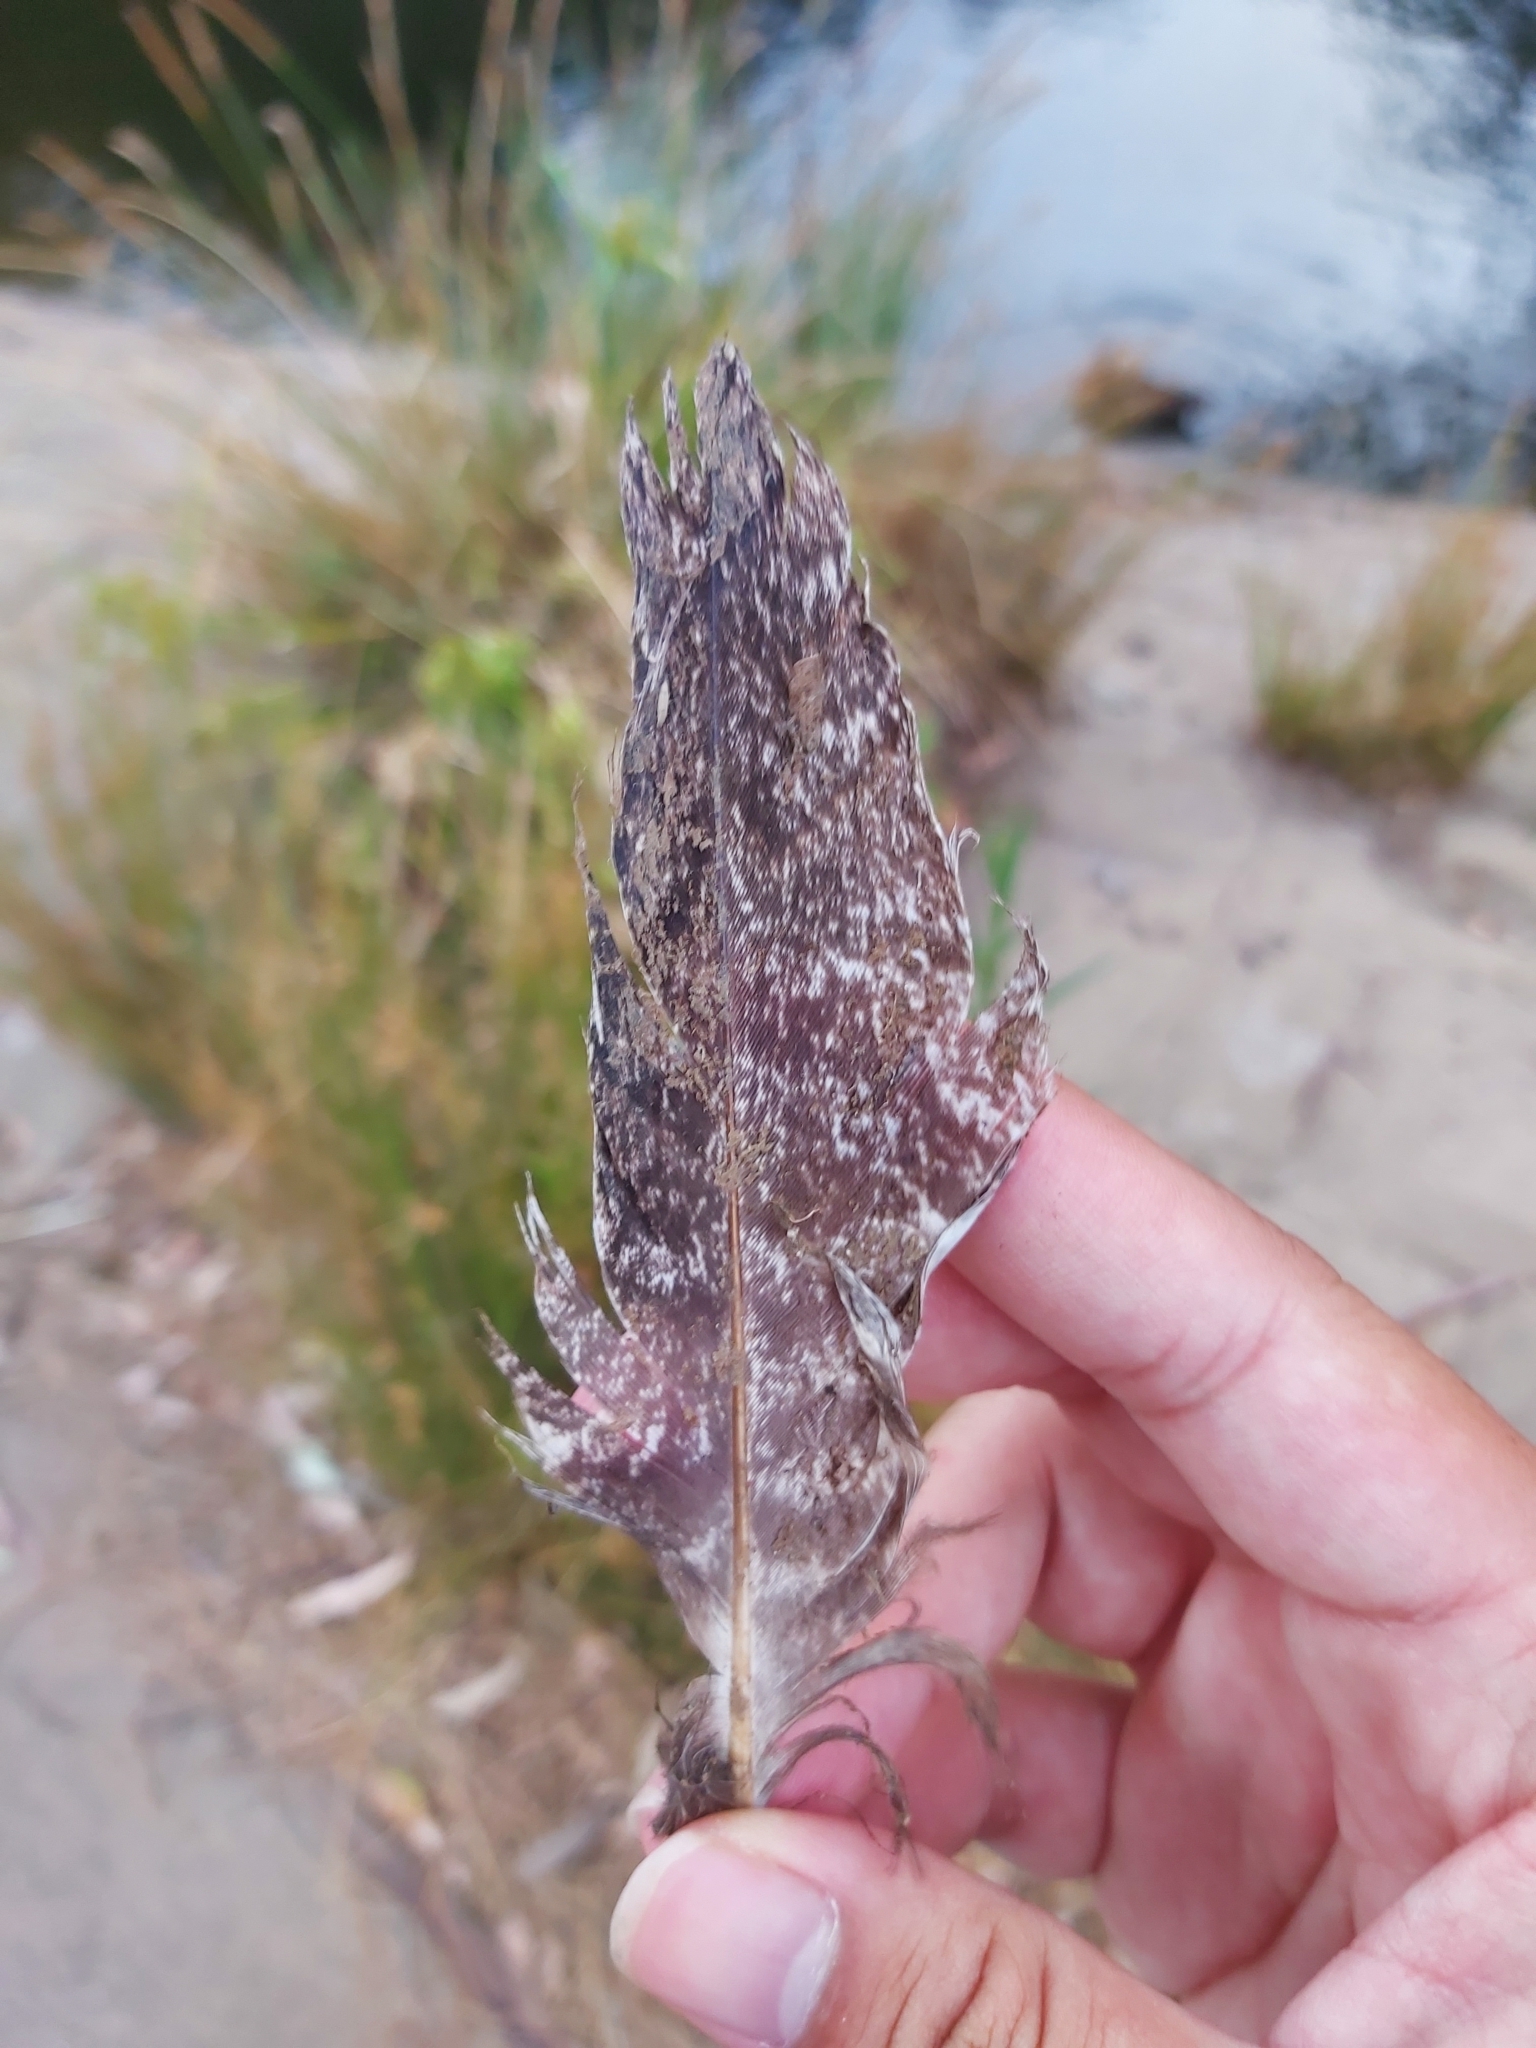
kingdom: Animalia
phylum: Chordata
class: Aves
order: Caprimulgiformes
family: Podargidae
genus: Podargus
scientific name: Podargus strigoides
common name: Tawny frogmouth
